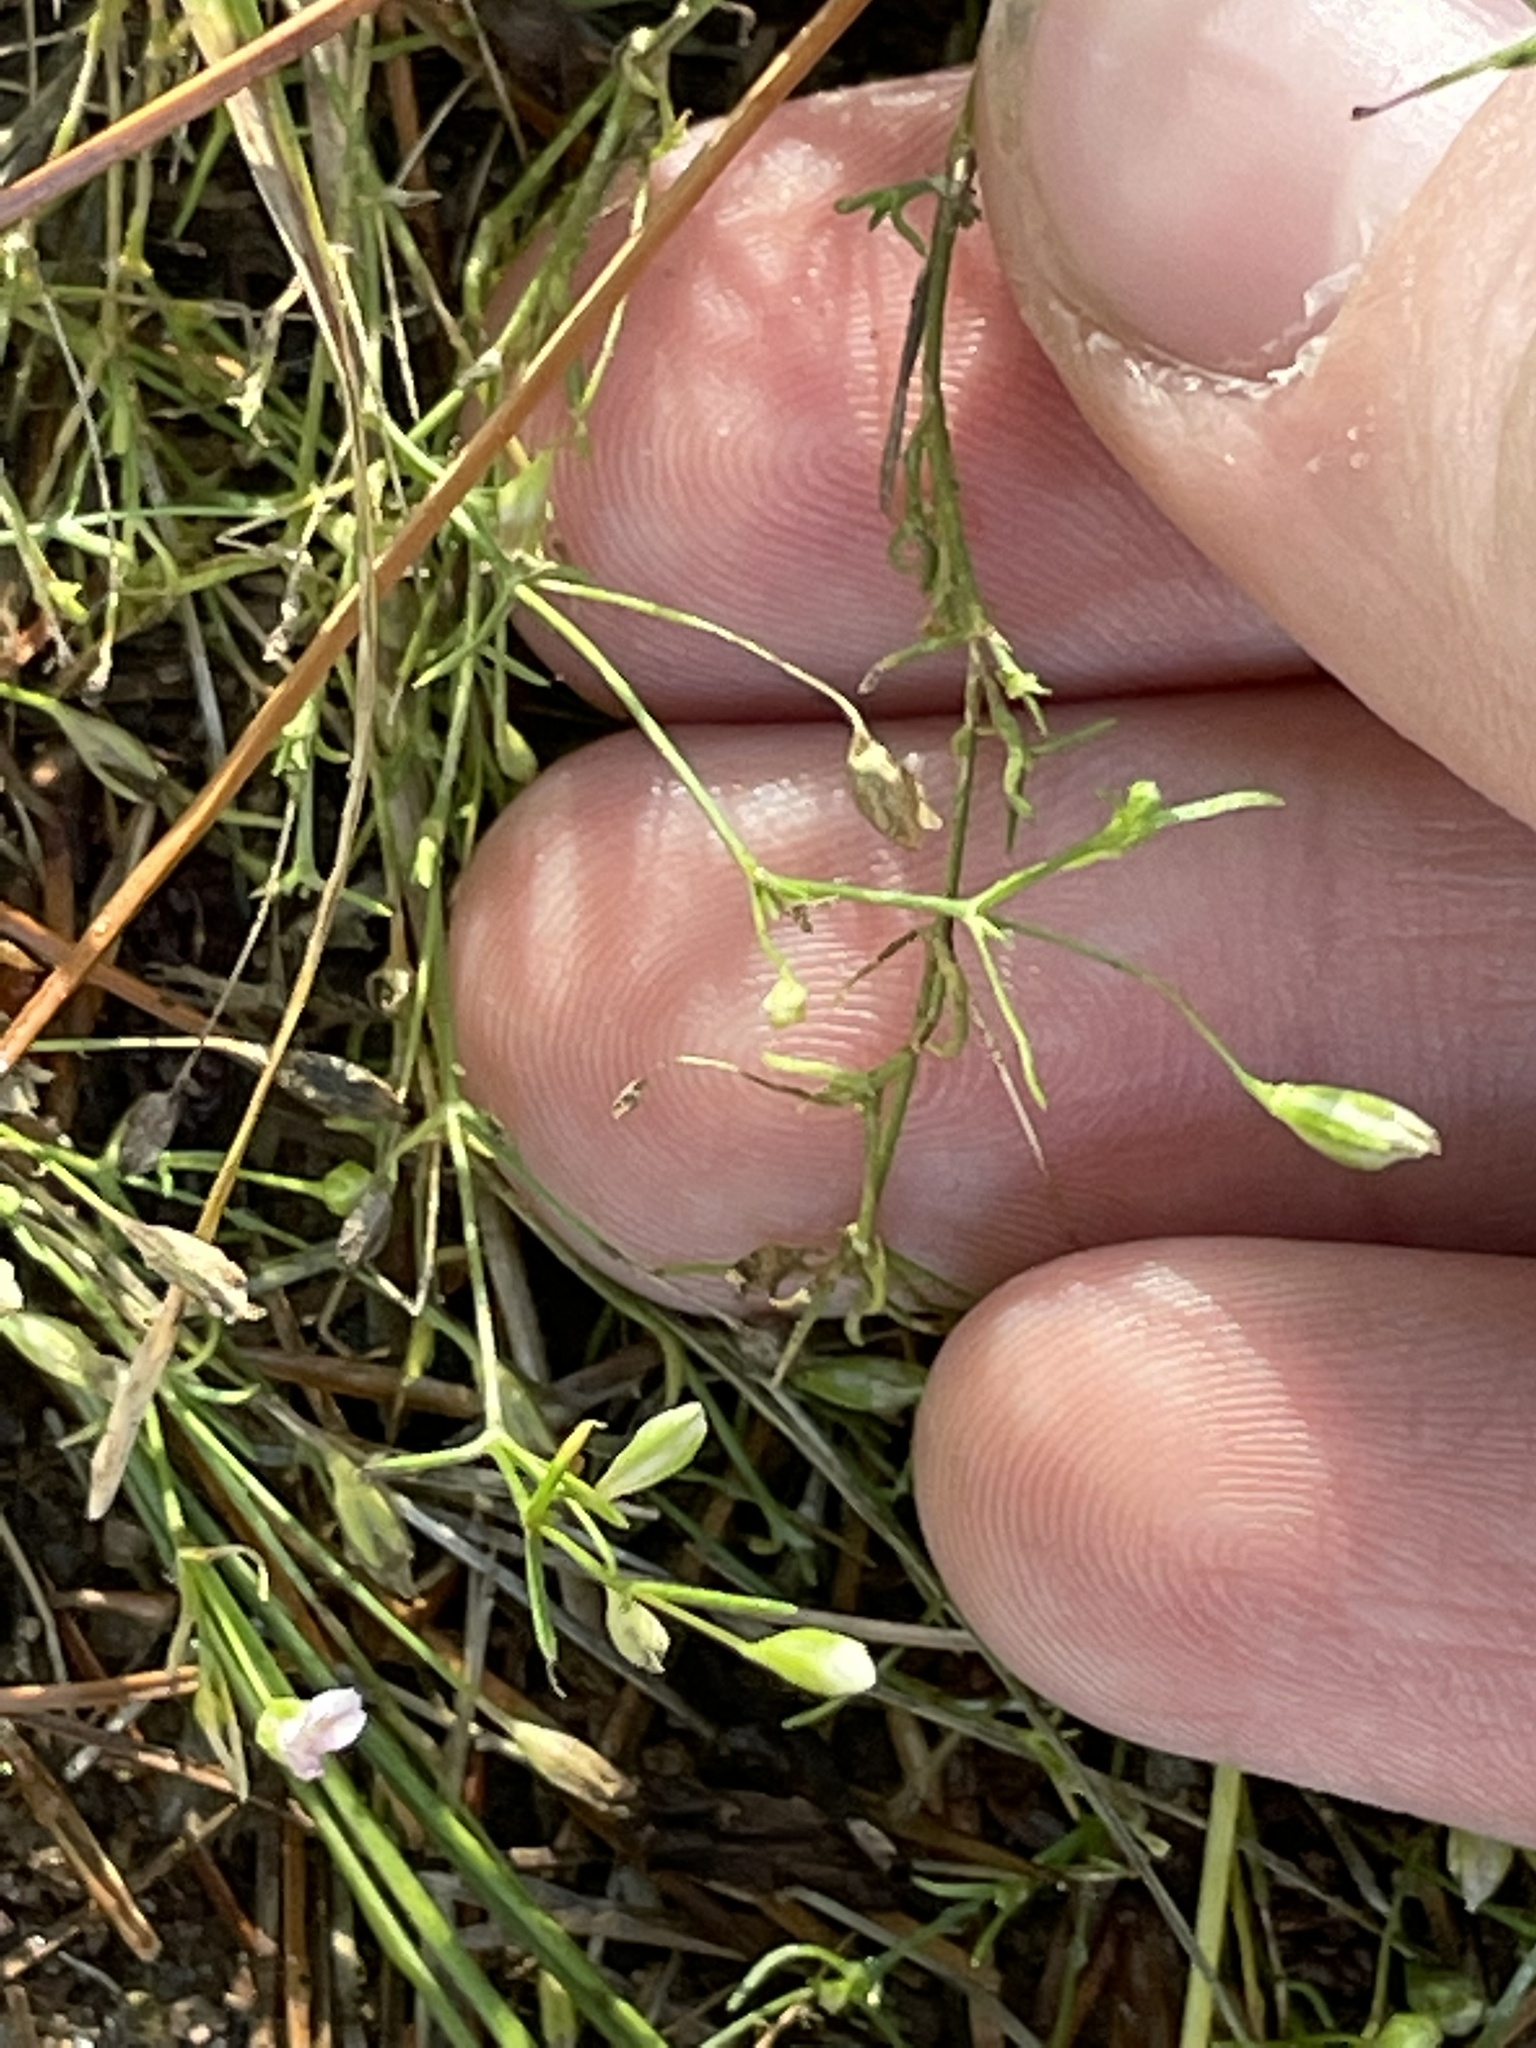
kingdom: Plantae
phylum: Tracheophyta
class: Magnoliopsida
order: Caryophyllales
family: Caryophyllaceae
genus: Psammophiliella
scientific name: Psammophiliella muralis
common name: Cushion baby's-breath
